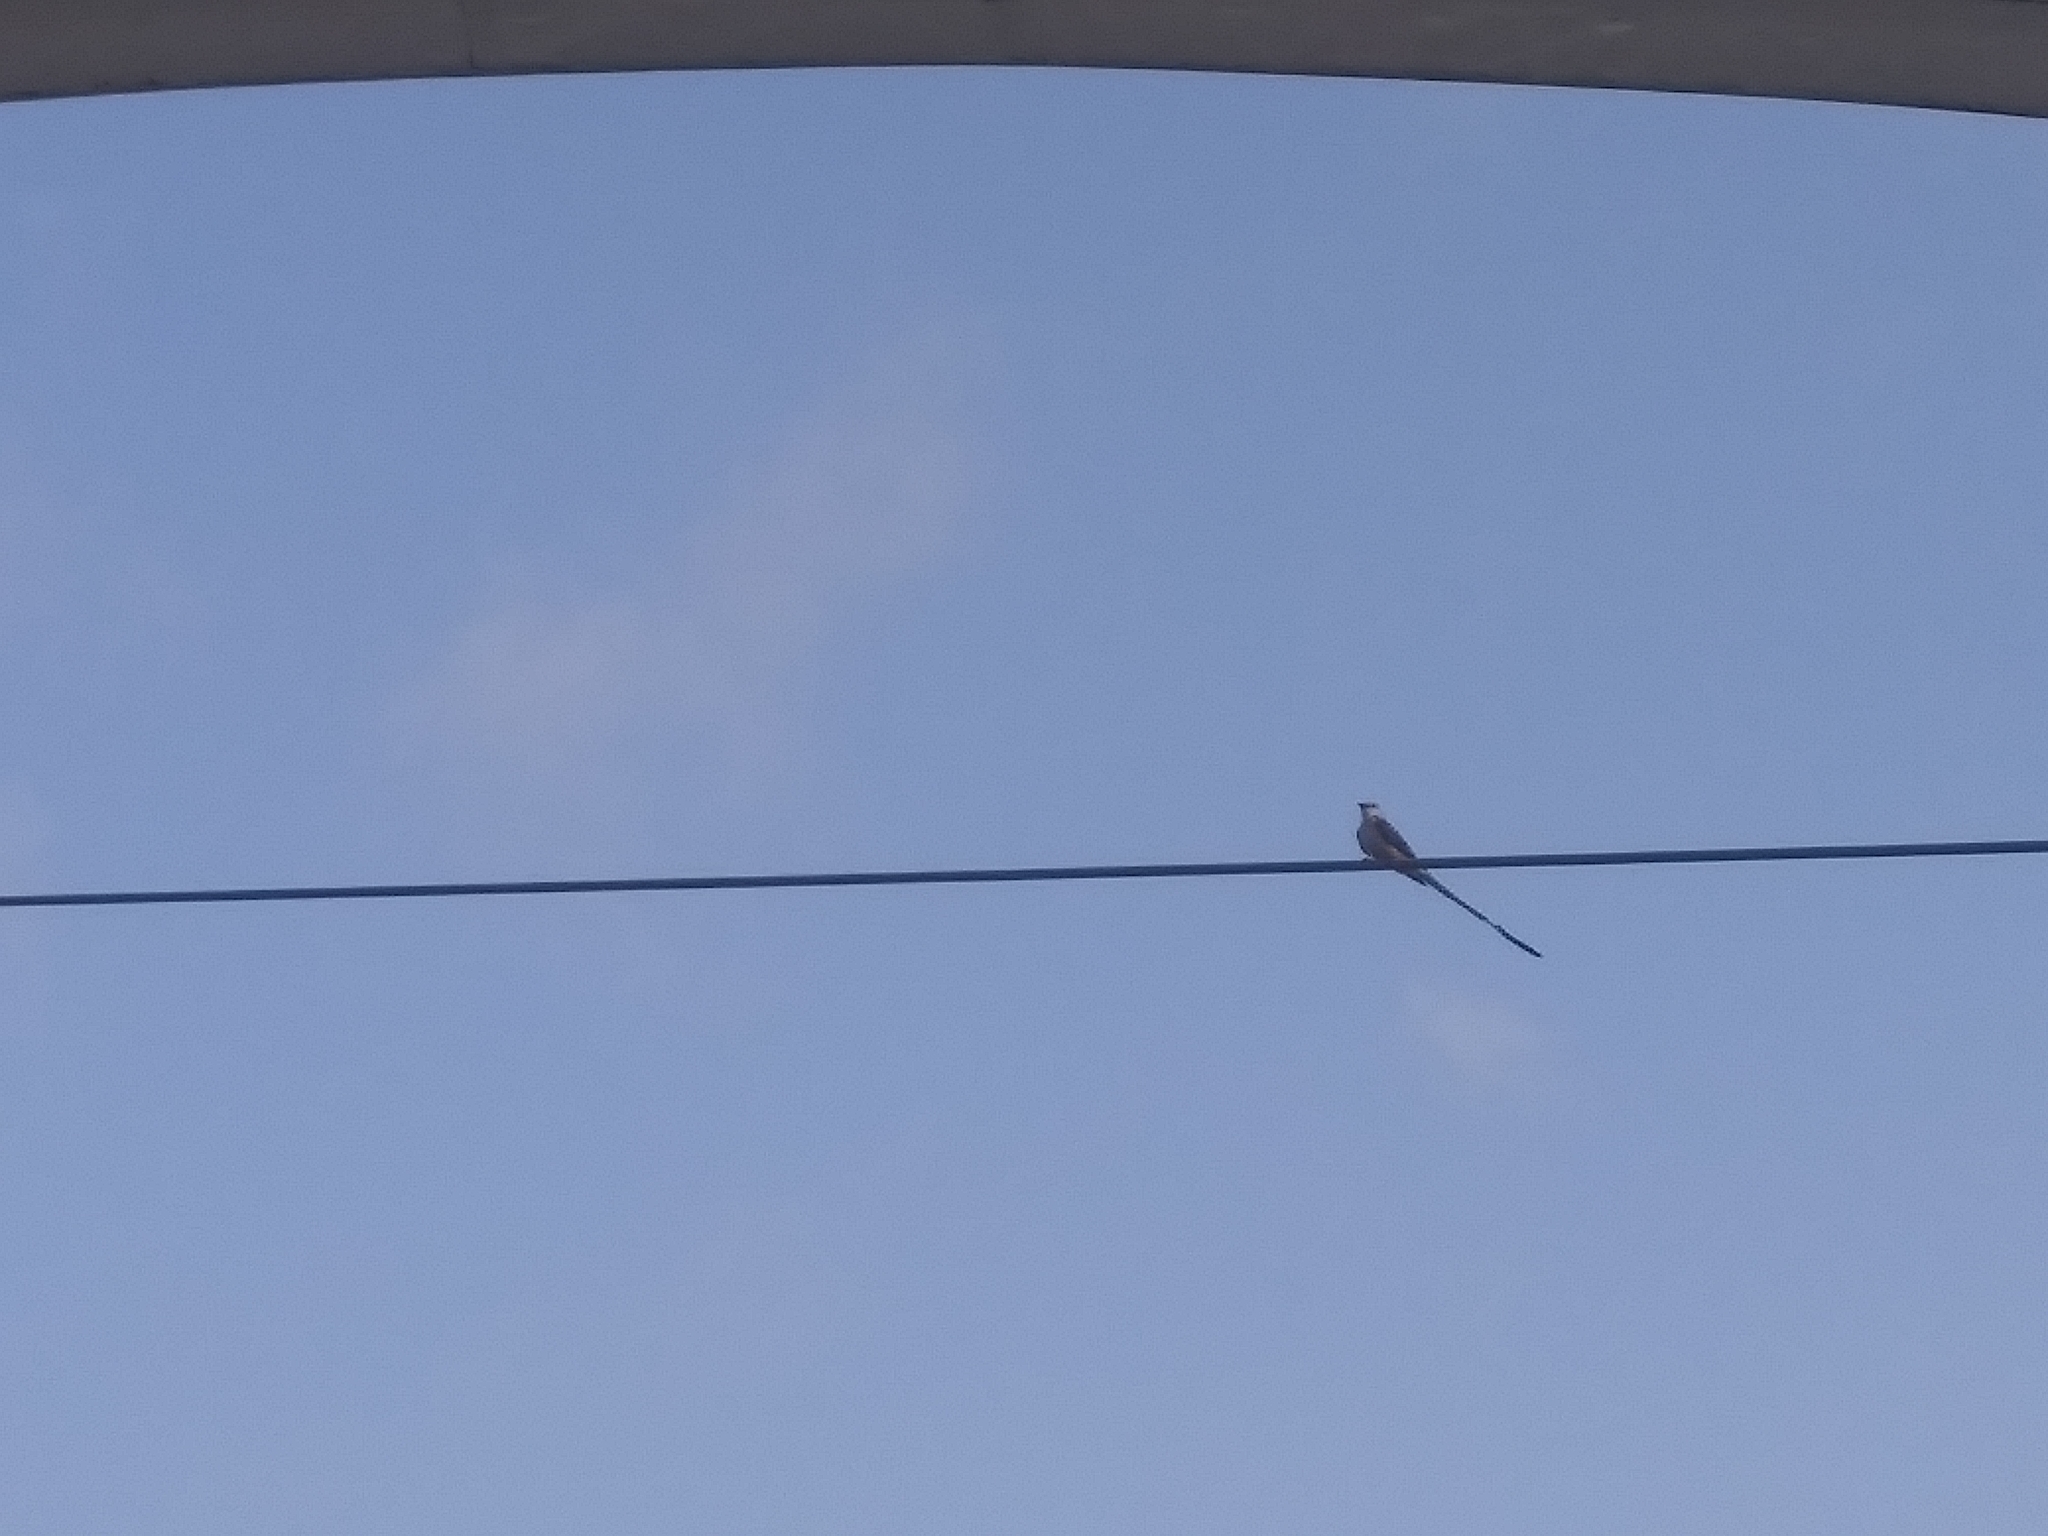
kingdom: Animalia
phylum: Chordata
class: Aves
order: Passeriformes
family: Tyrannidae
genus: Tyrannus
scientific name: Tyrannus forficatus
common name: Scissor-tailed flycatcher
